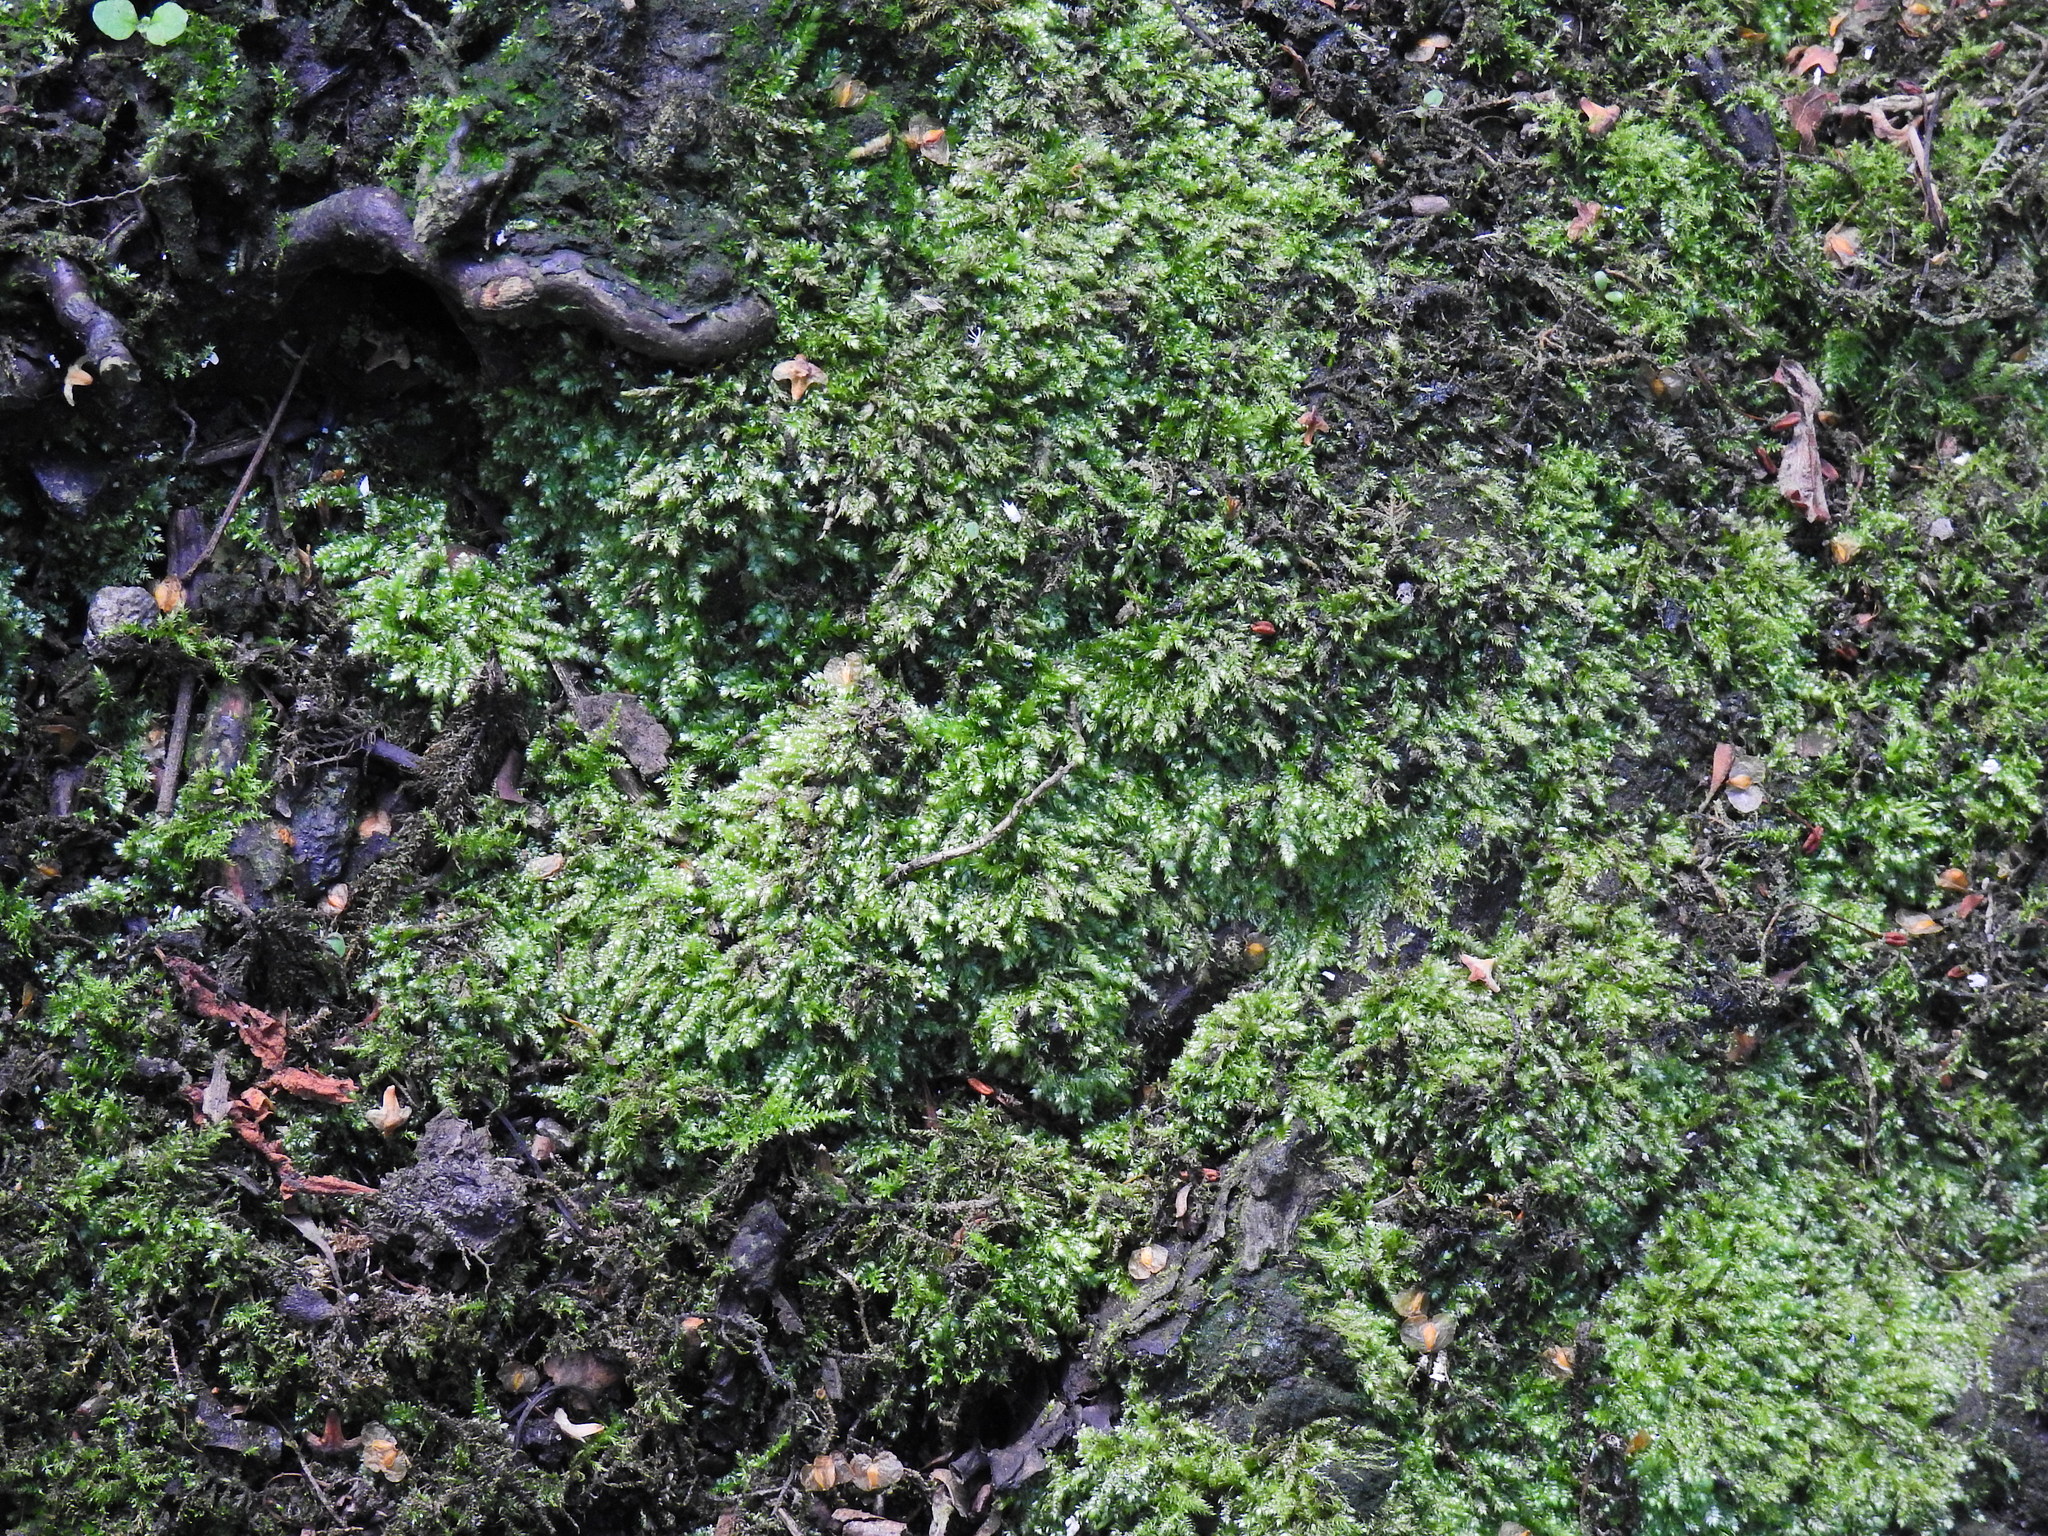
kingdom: Plantae
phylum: Bryophyta
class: Bryopsida
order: Hypnales
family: Hypnaceae
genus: Hypnum
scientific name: Hypnum cupressiforme
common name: Cypress-leaved plait-moss
